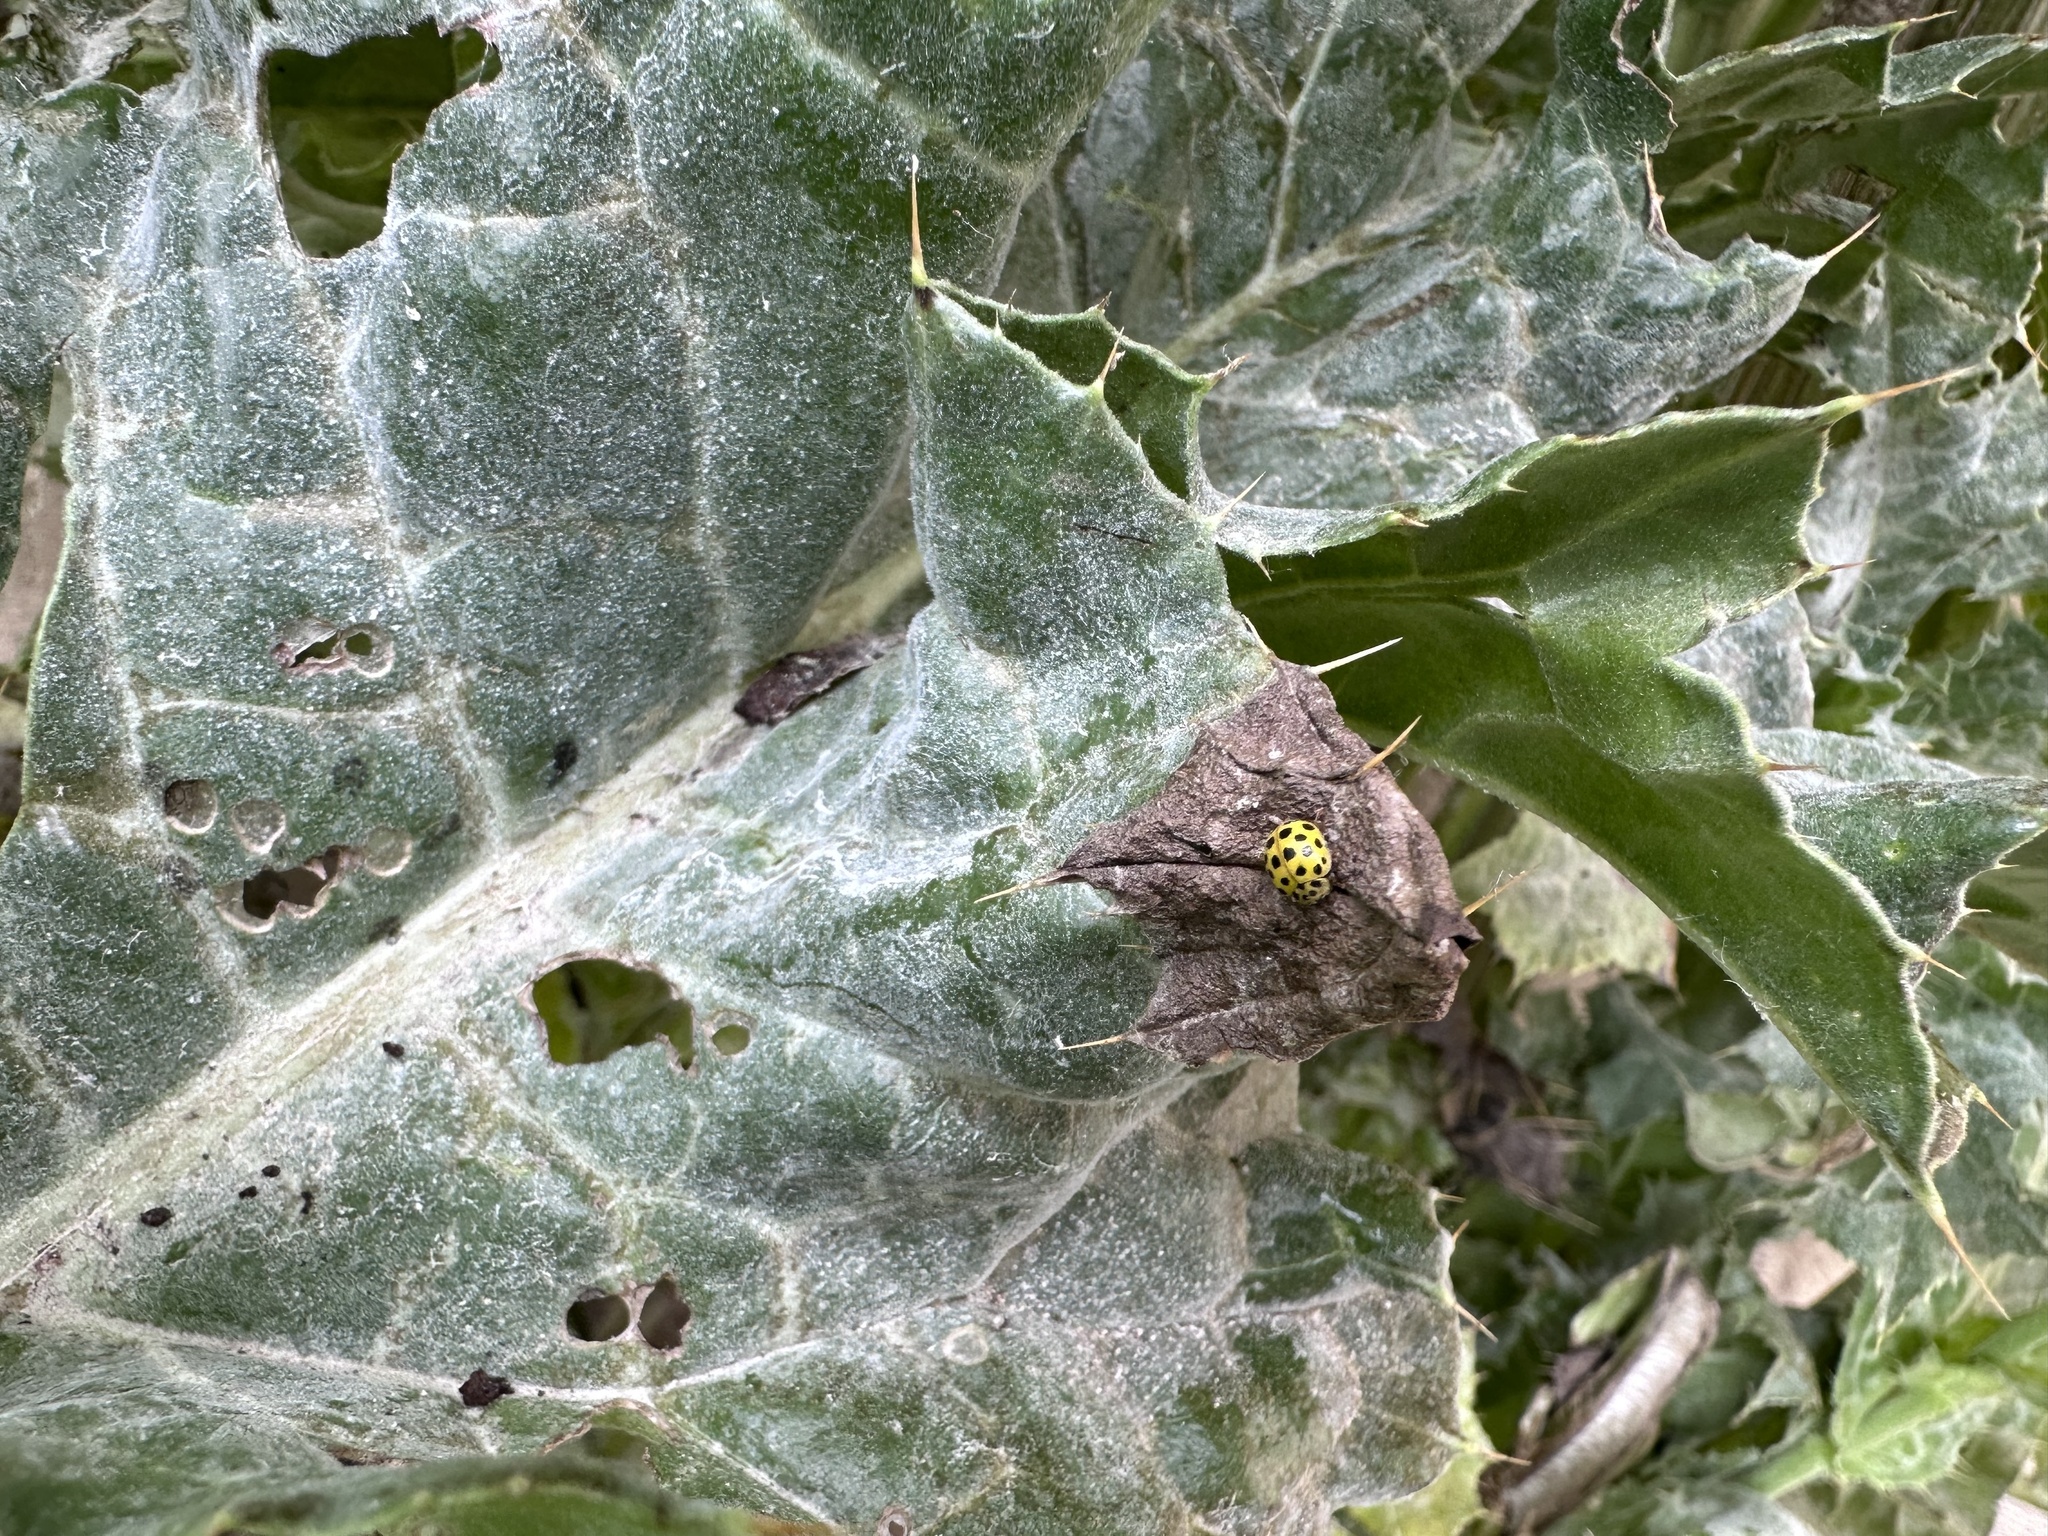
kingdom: Animalia
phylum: Arthropoda
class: Insecta
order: Coleoptera
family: Coccinellidae
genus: Psyllobora
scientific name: Psyllobora vigintiduopunctata
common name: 22-spot ladybird
